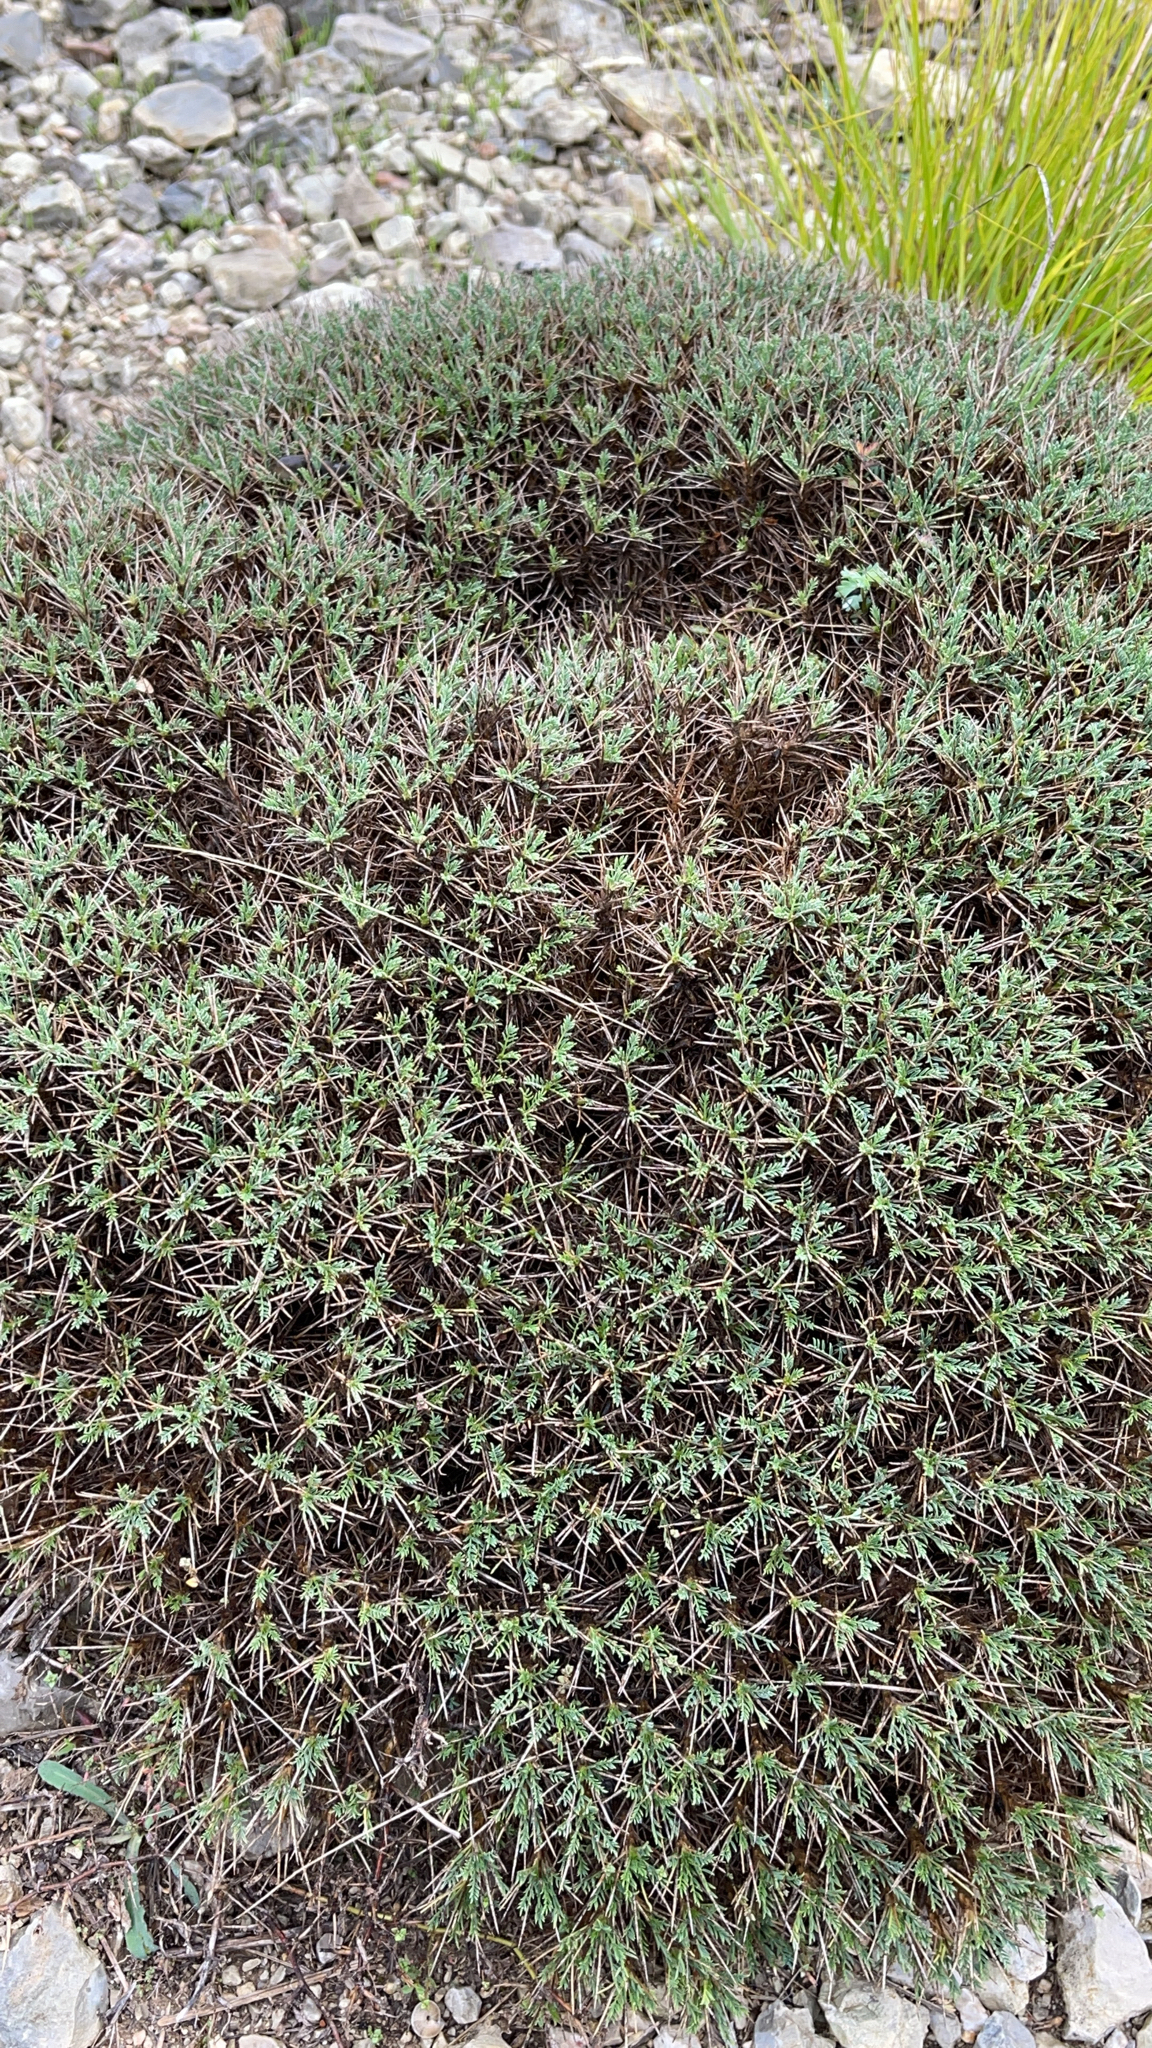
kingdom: Plantae
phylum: Tracheophyta
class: Magnoliopsida
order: Fabales
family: Fabaceae
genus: Astragalus
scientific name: Astragalus balearicus
